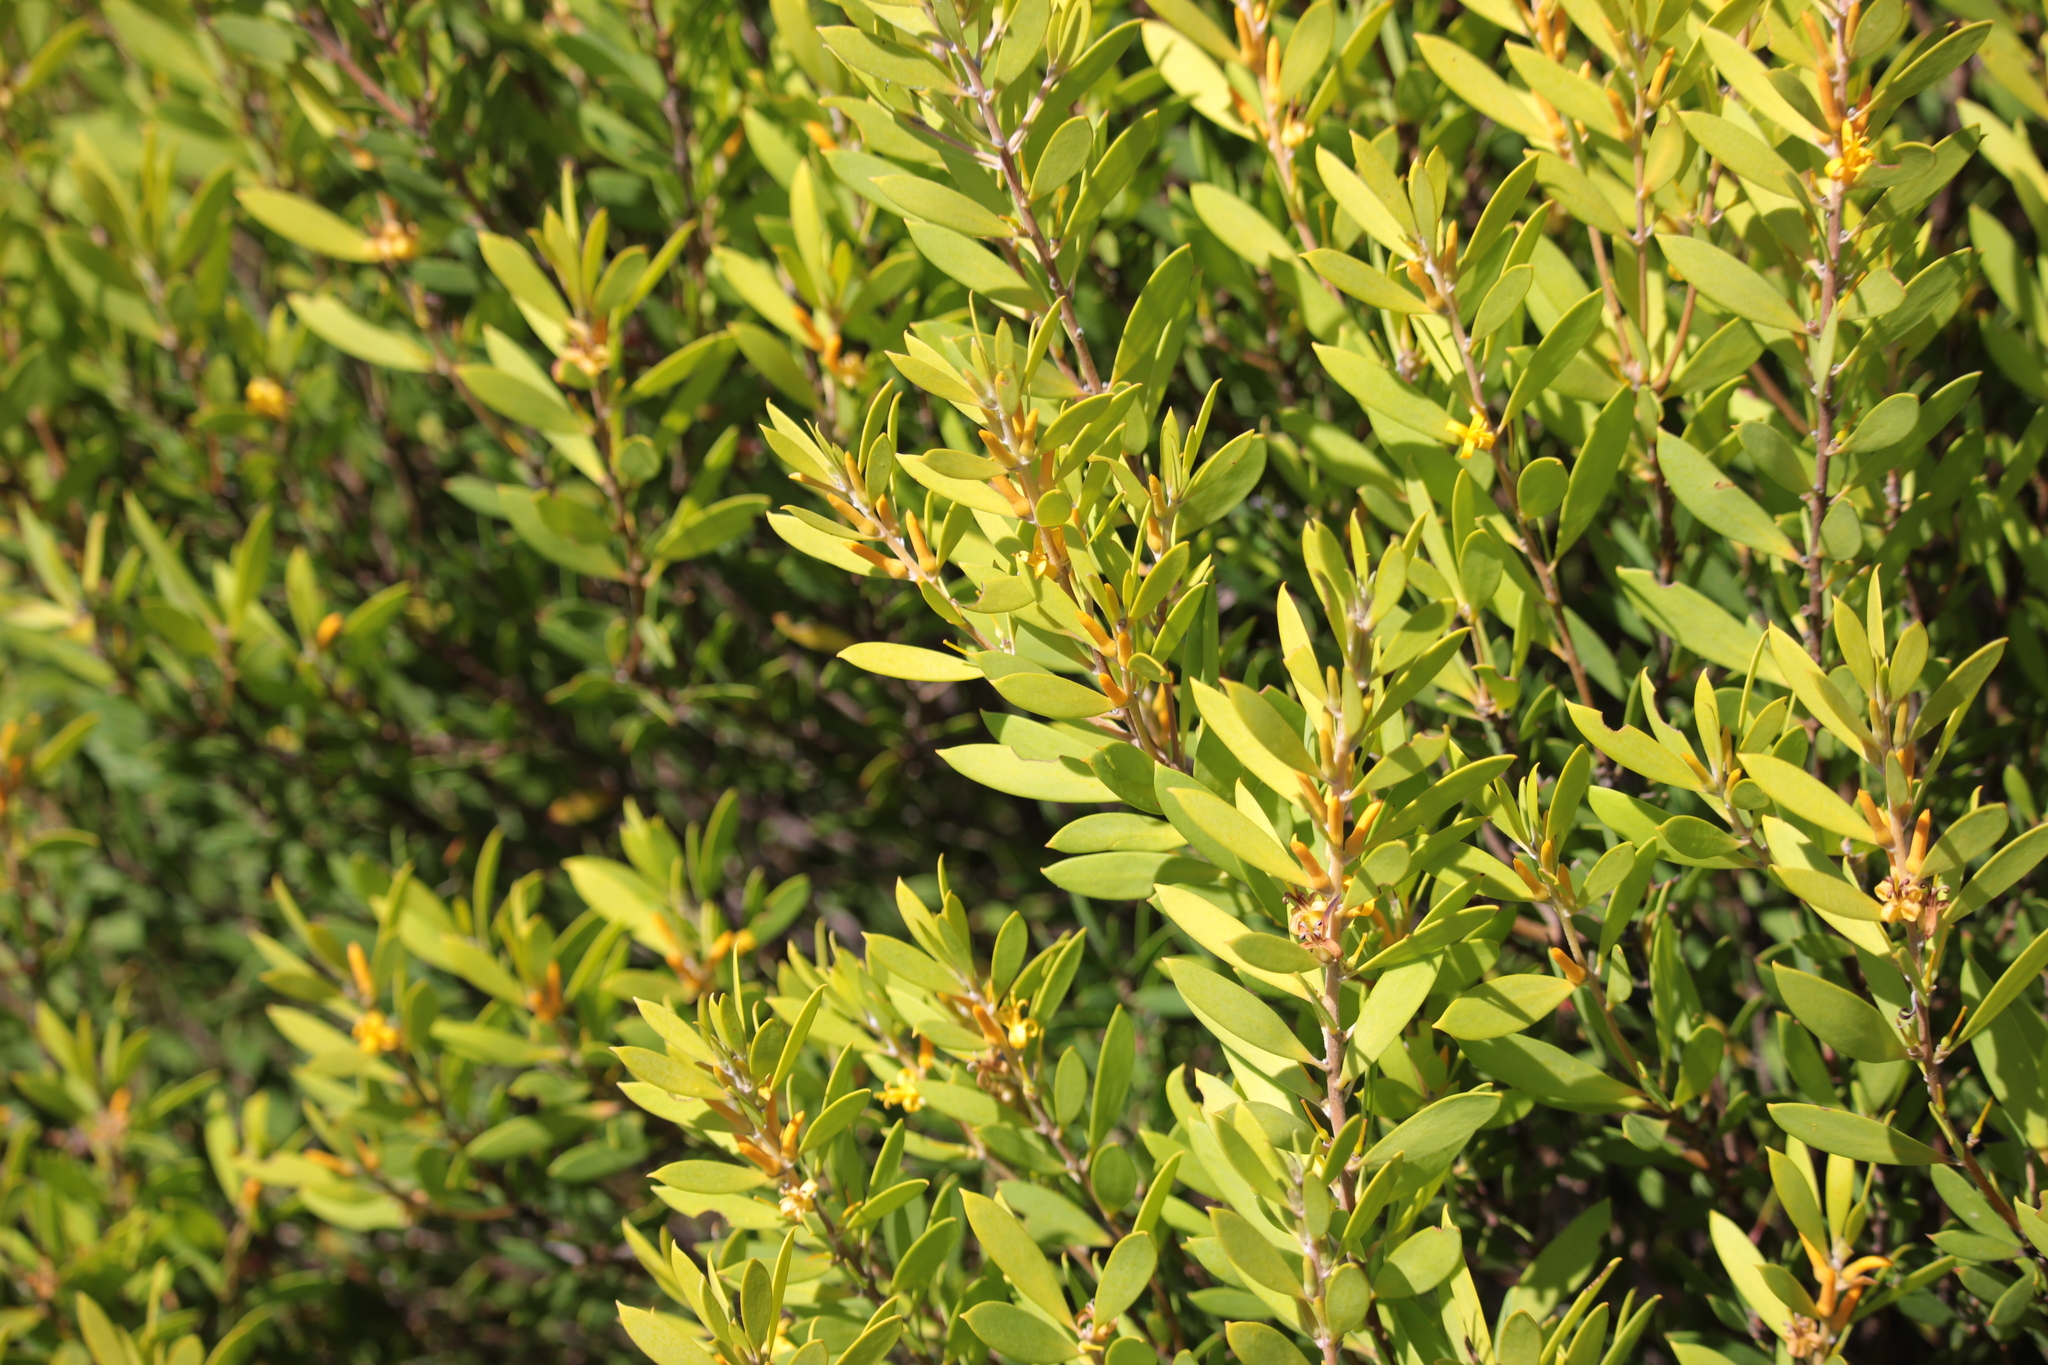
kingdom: Plantae
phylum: Tracheophyta
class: Magnoliopsida
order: Proteales
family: Proteaceae
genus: Persoonia
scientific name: Persoonia lanceolata
